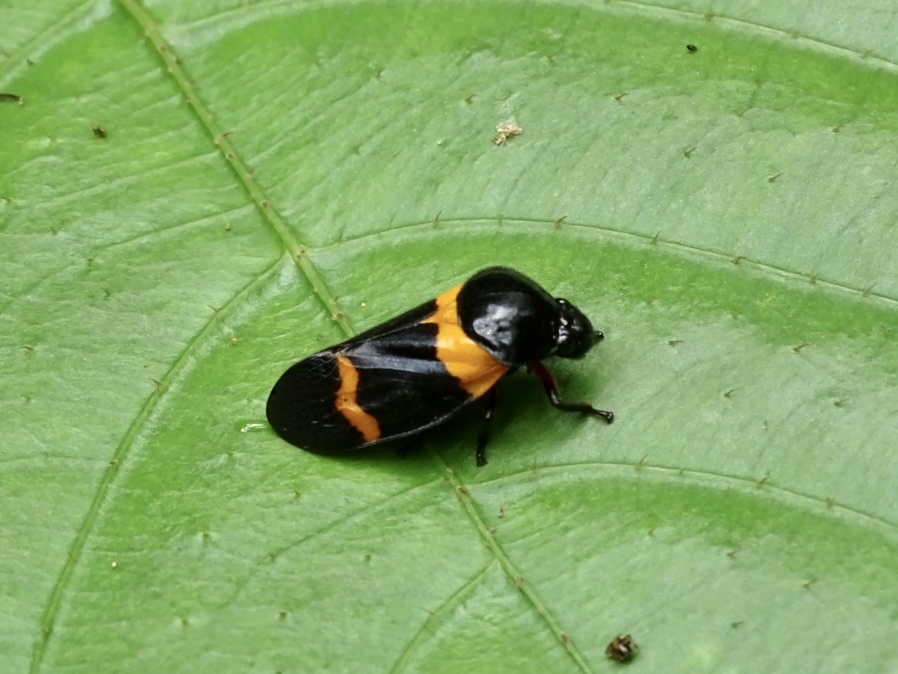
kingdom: Animalia
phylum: Arthropoda
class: Insecta
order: Hemiptera
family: Cercopidae
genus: Cosmoscarta
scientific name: Cosmoscarta abdominalis
